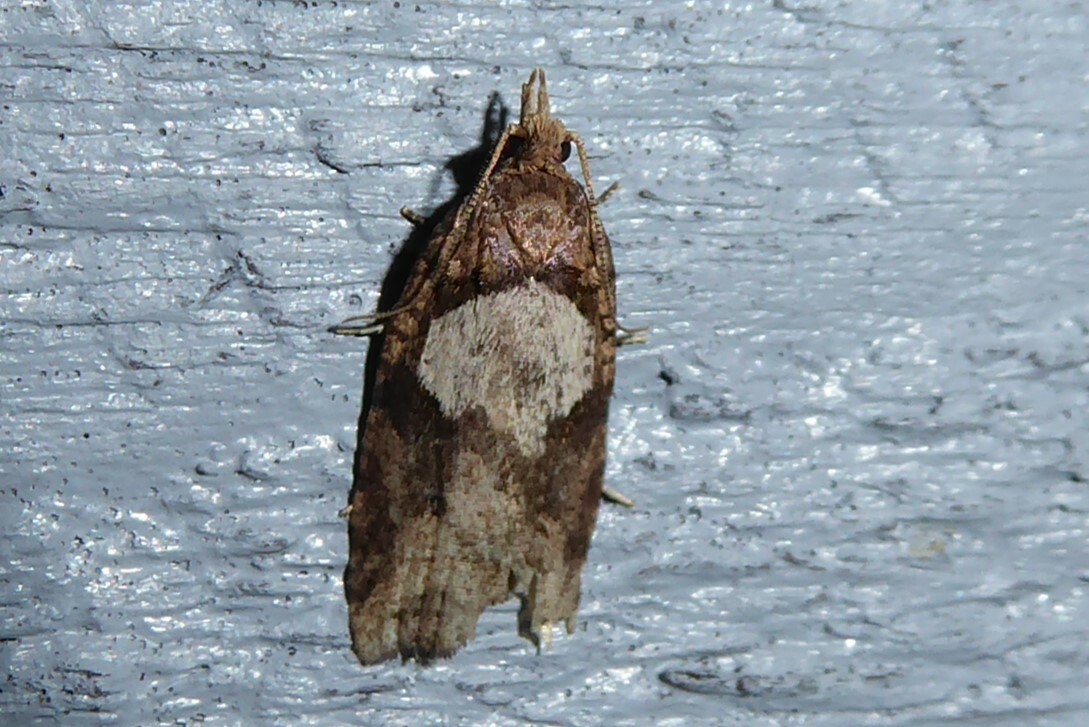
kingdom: Animalia
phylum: Arthropoda
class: Insecta
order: Lepidoptera
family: Tortricidae
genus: Ctenopseustis
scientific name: Ctenopseustis obliquana
